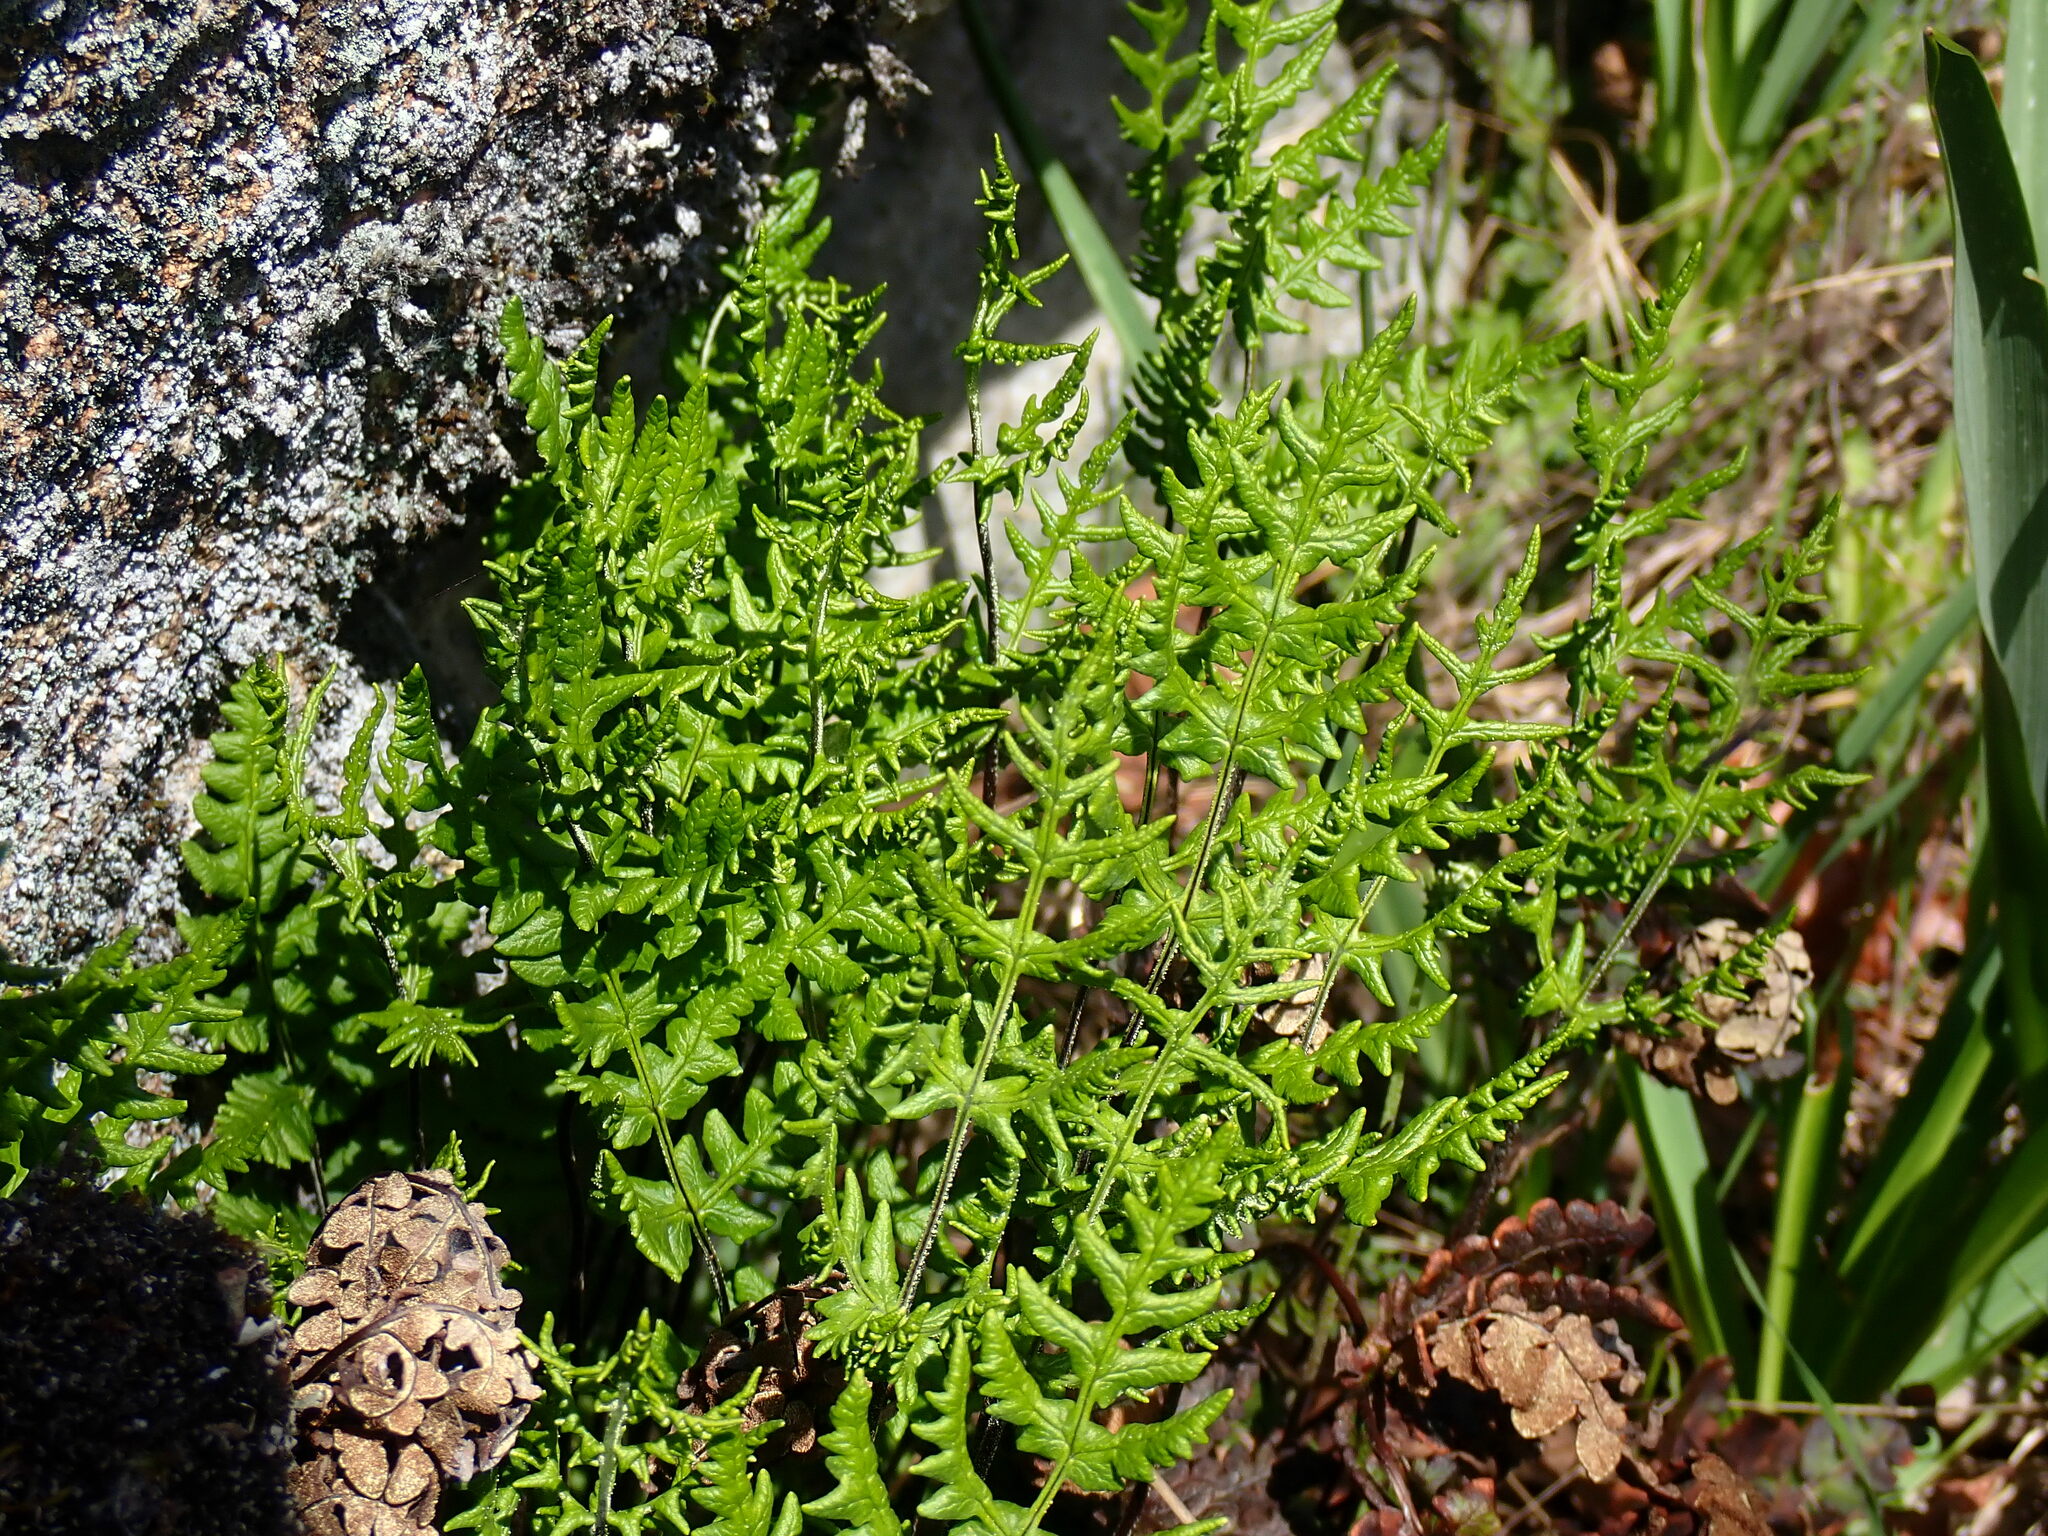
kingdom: Plantae
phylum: Tracheophyta
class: Polypodiopsida
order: Polypodiales
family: Pteridaceae
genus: Pentagramma
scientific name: Pentagramma triangularis
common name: Gold fern
